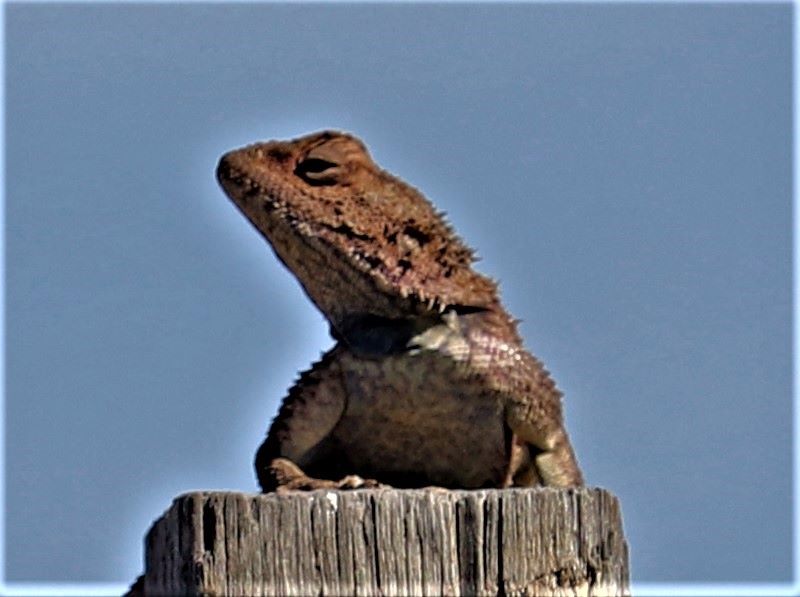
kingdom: Animalia
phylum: Chordata
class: Squamata
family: Agamidae
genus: Agama
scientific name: Agama atra
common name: Southern african rock agama
